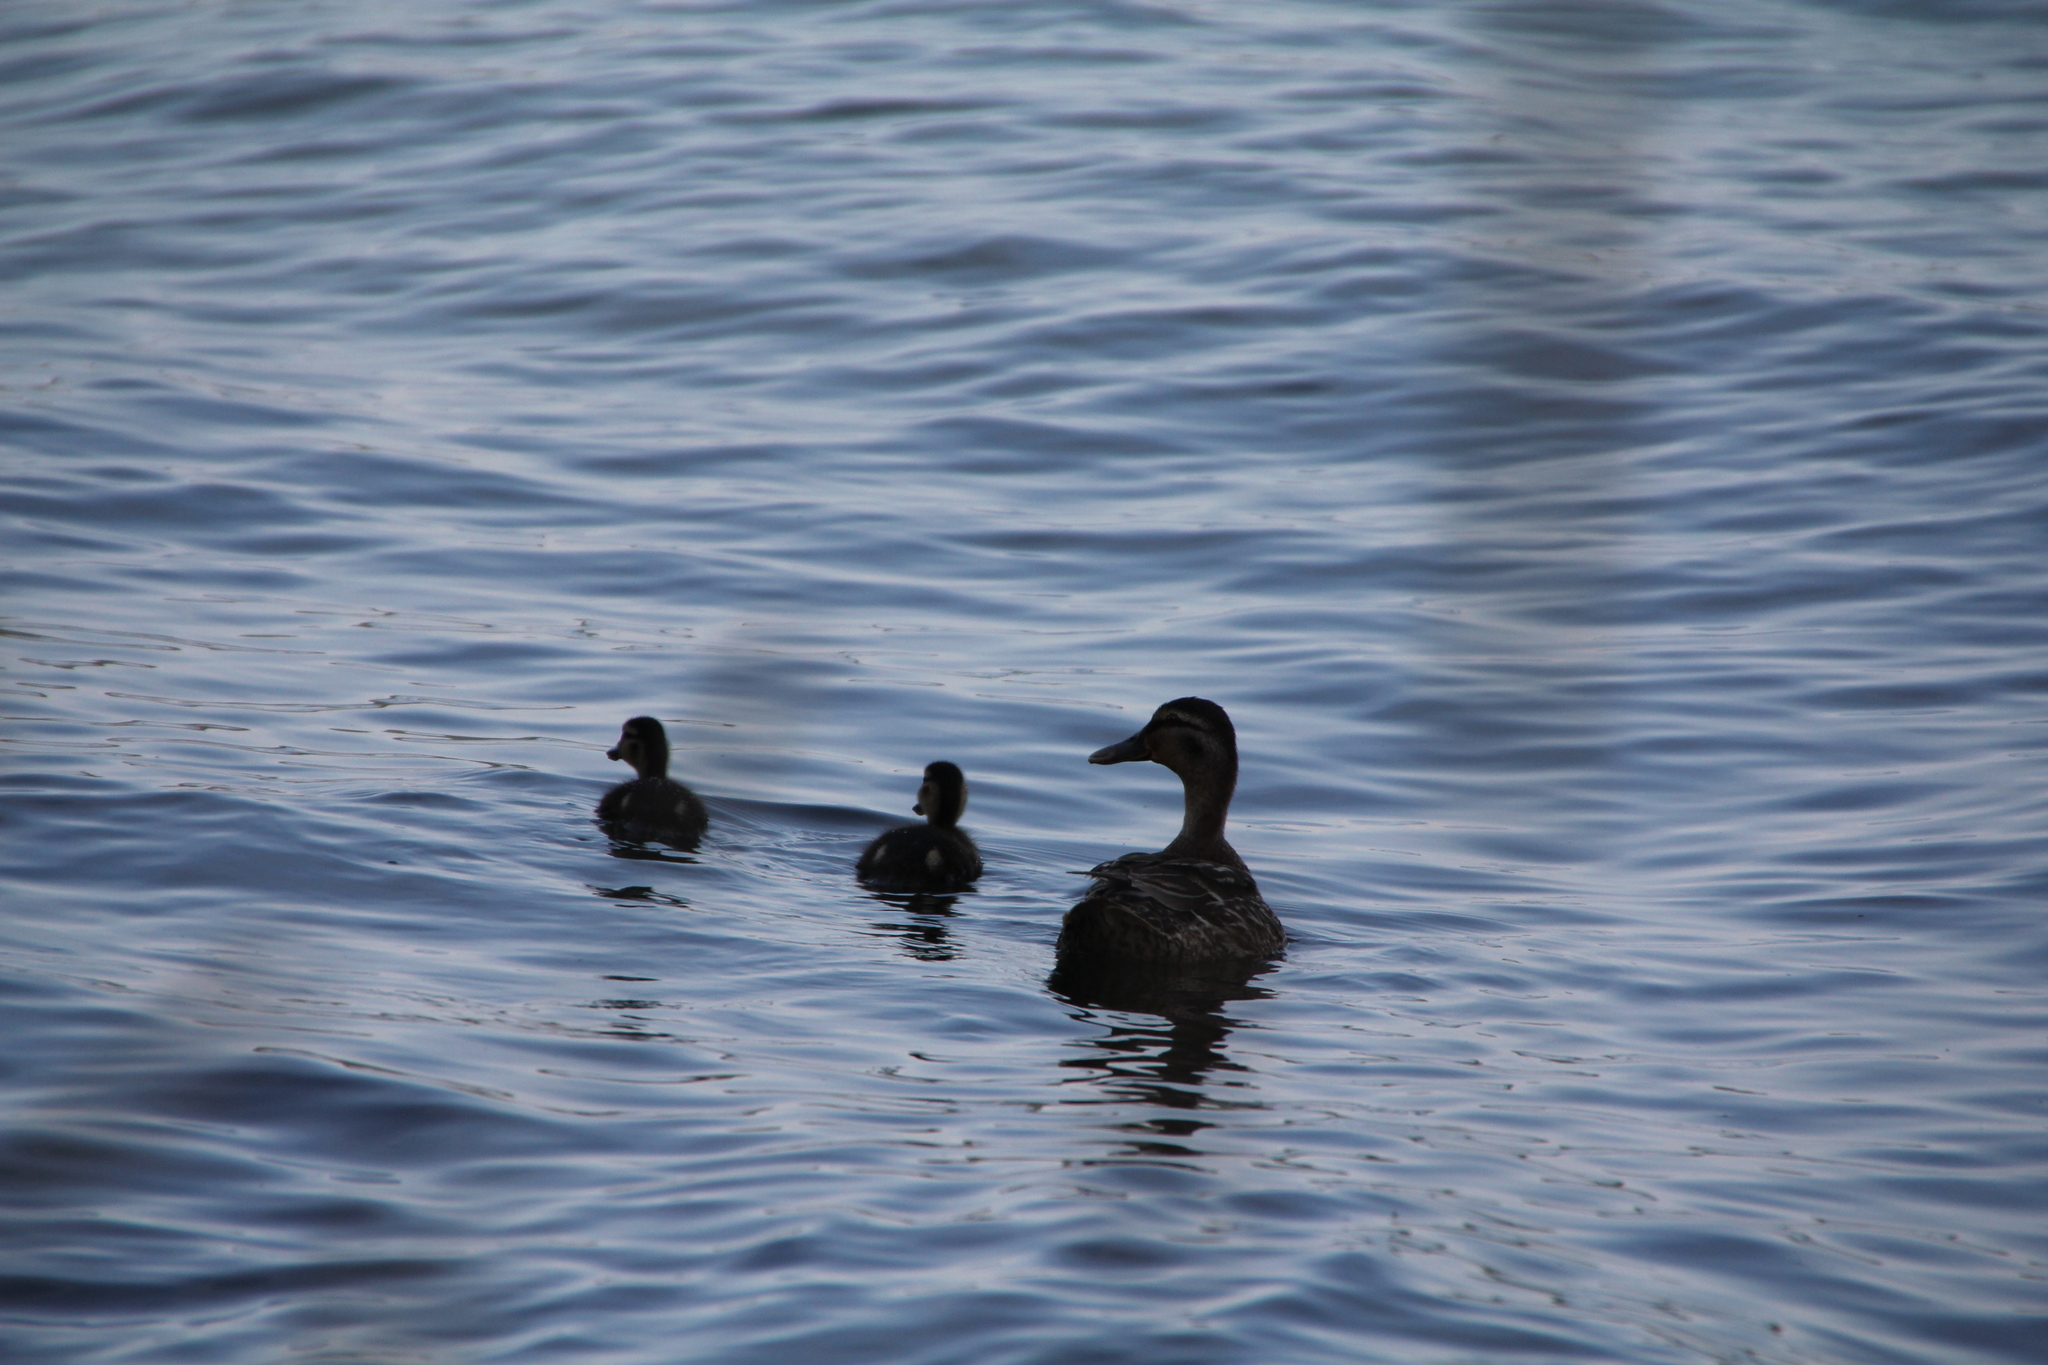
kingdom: Animalia
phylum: Chordata
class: Aves
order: Anseriformes
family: Anatidae
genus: Anas
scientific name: Anas platyrhynchos
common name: Mallard
